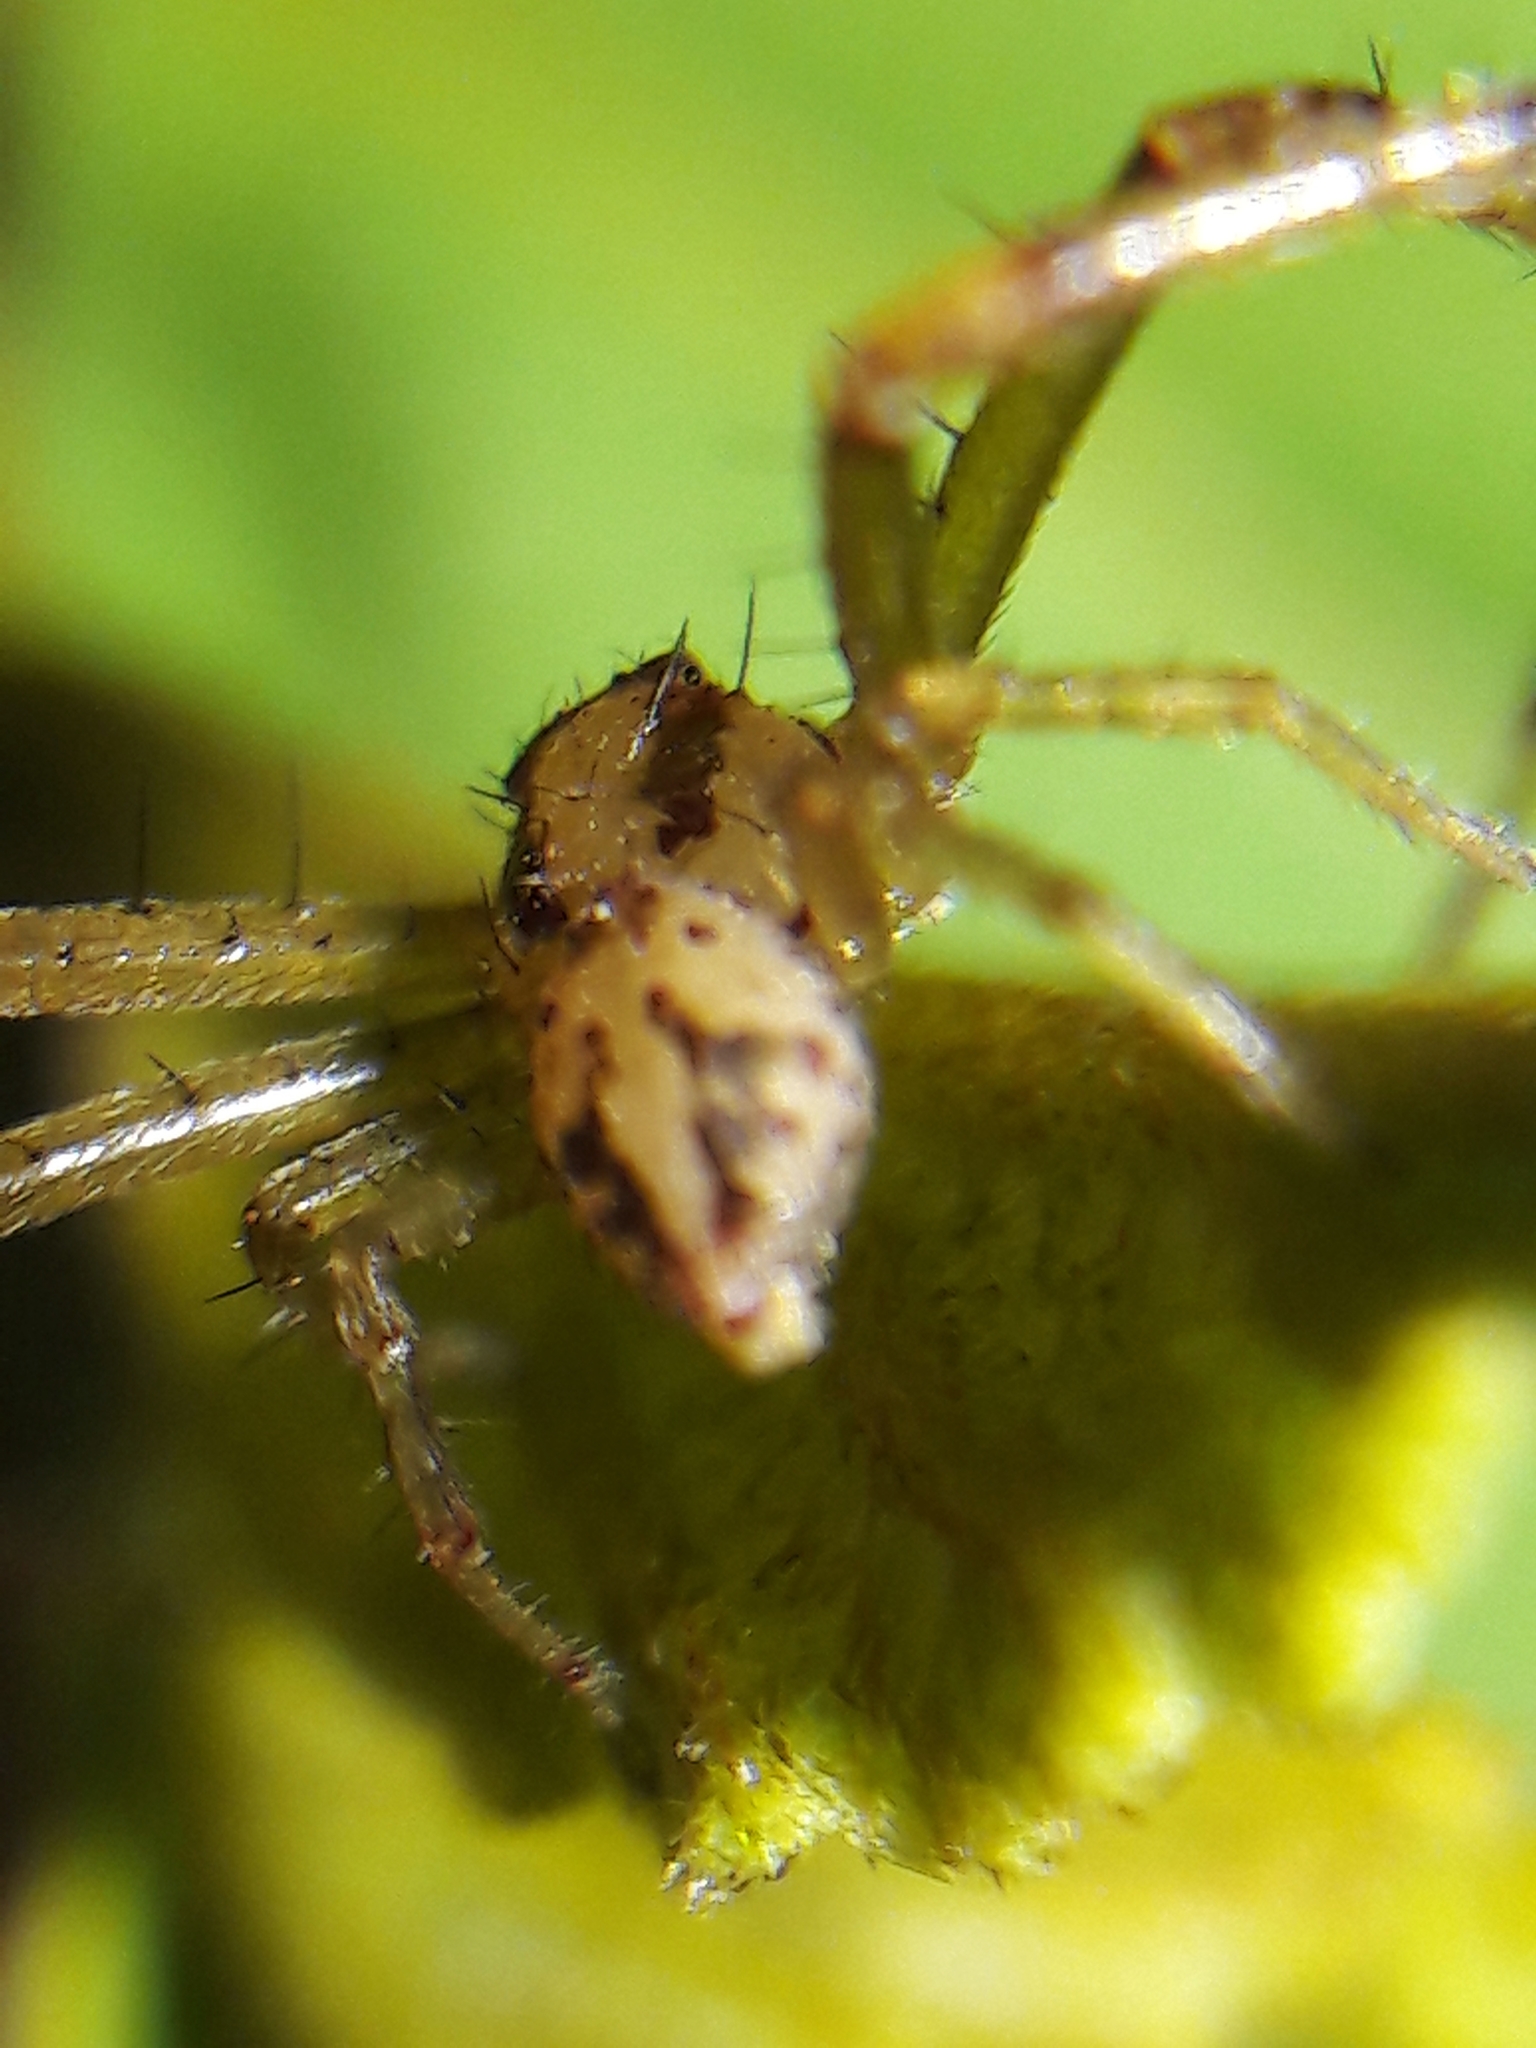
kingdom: Animalia
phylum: Arthropoda
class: Arachnida
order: Araneae
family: Thomisidae
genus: Misumenops
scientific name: Misumenops maculissparsus
